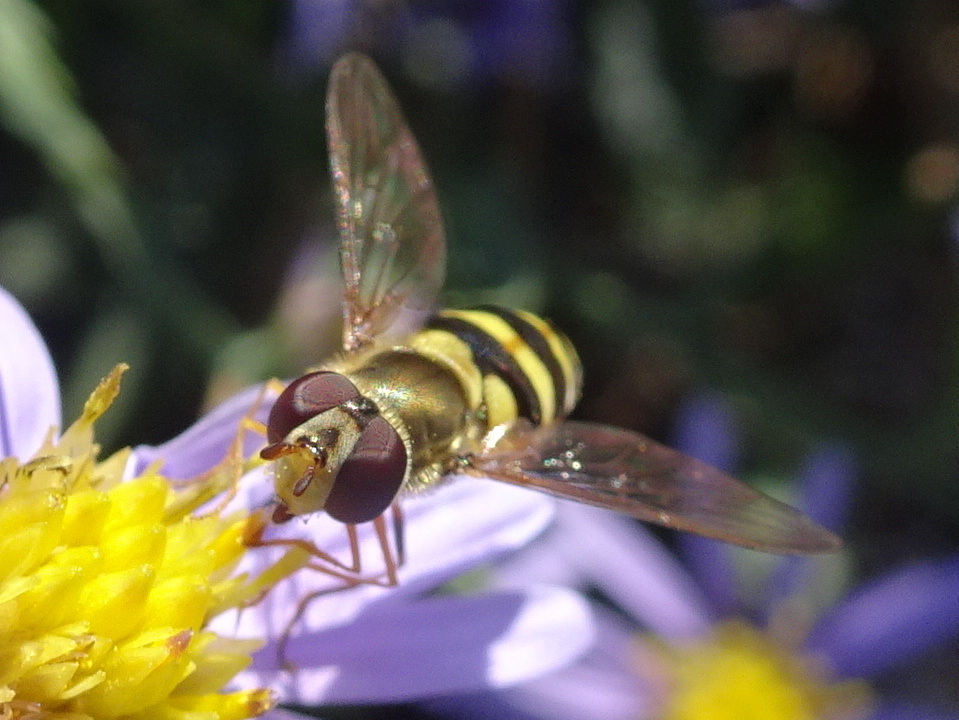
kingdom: Animalia
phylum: Arthropoda
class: Insecta
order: Diptera
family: Syrphidae
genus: Syrphus
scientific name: Syrphus rectus
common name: Yellow-legged flower fly
